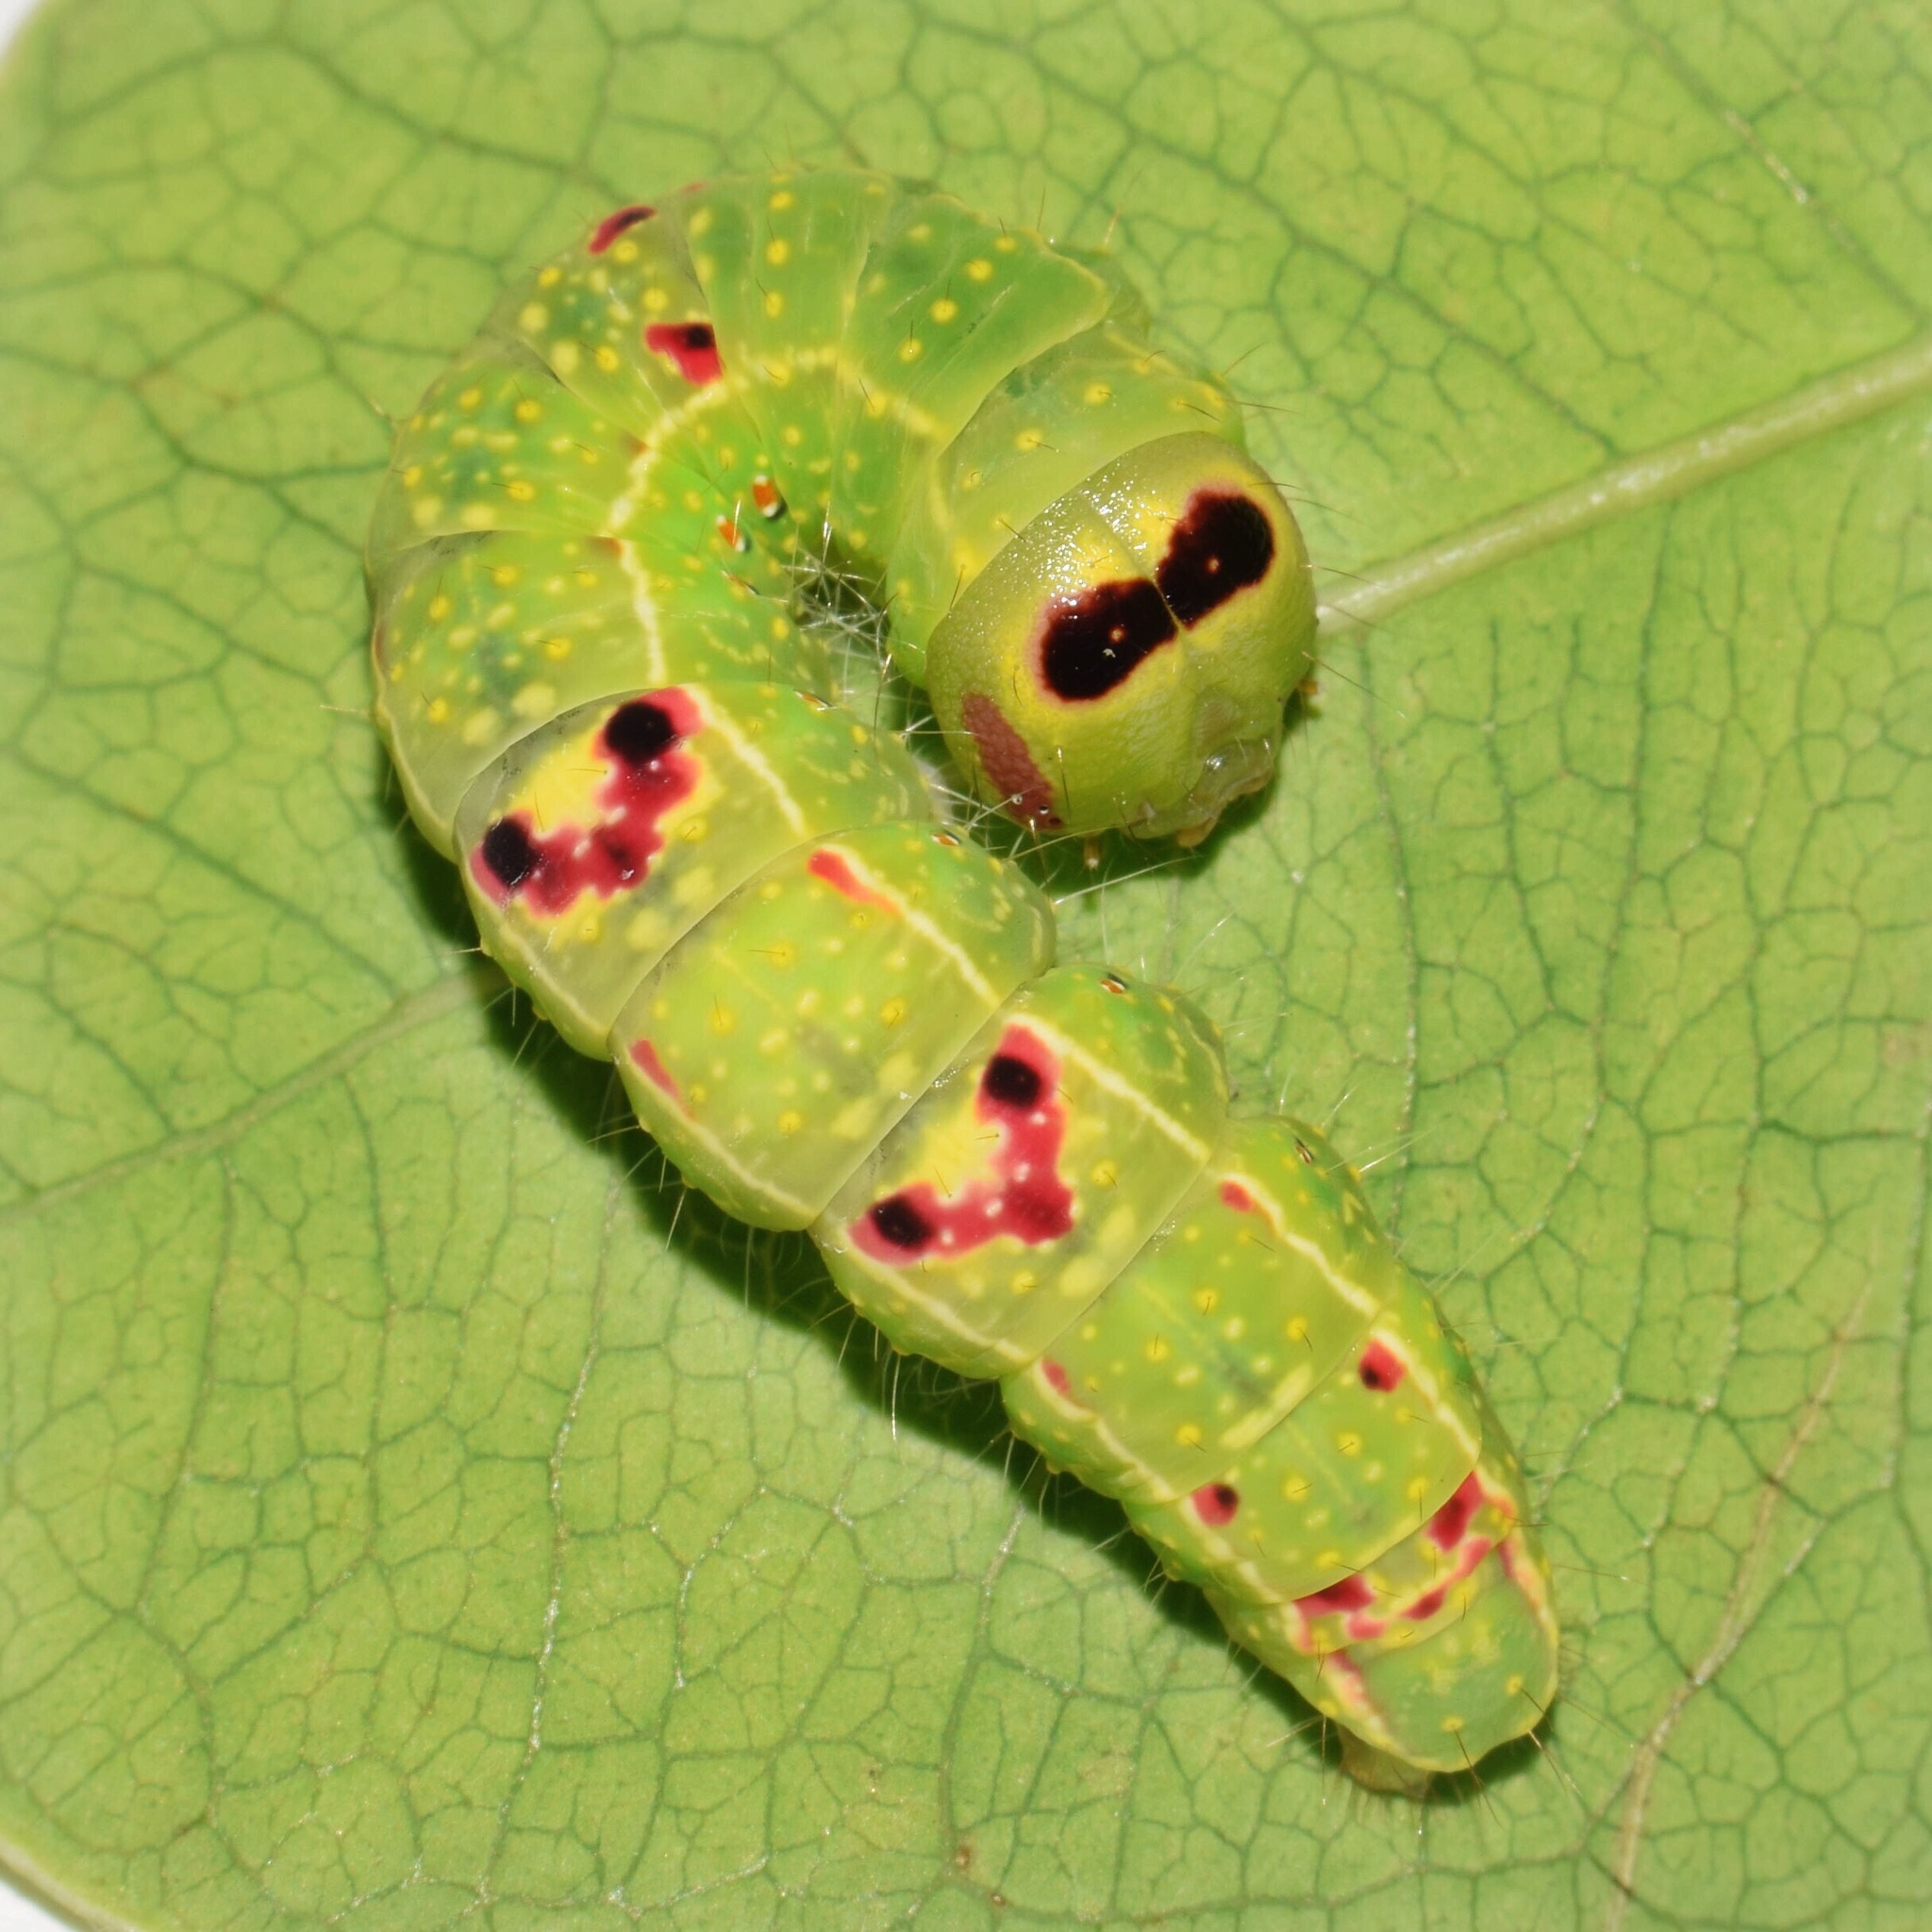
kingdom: Animalia
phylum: Arthropoda
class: Insecta
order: Lepidoptera
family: Notodontidae
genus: Desmeocraera
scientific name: Desmeocraera interpellatrix
